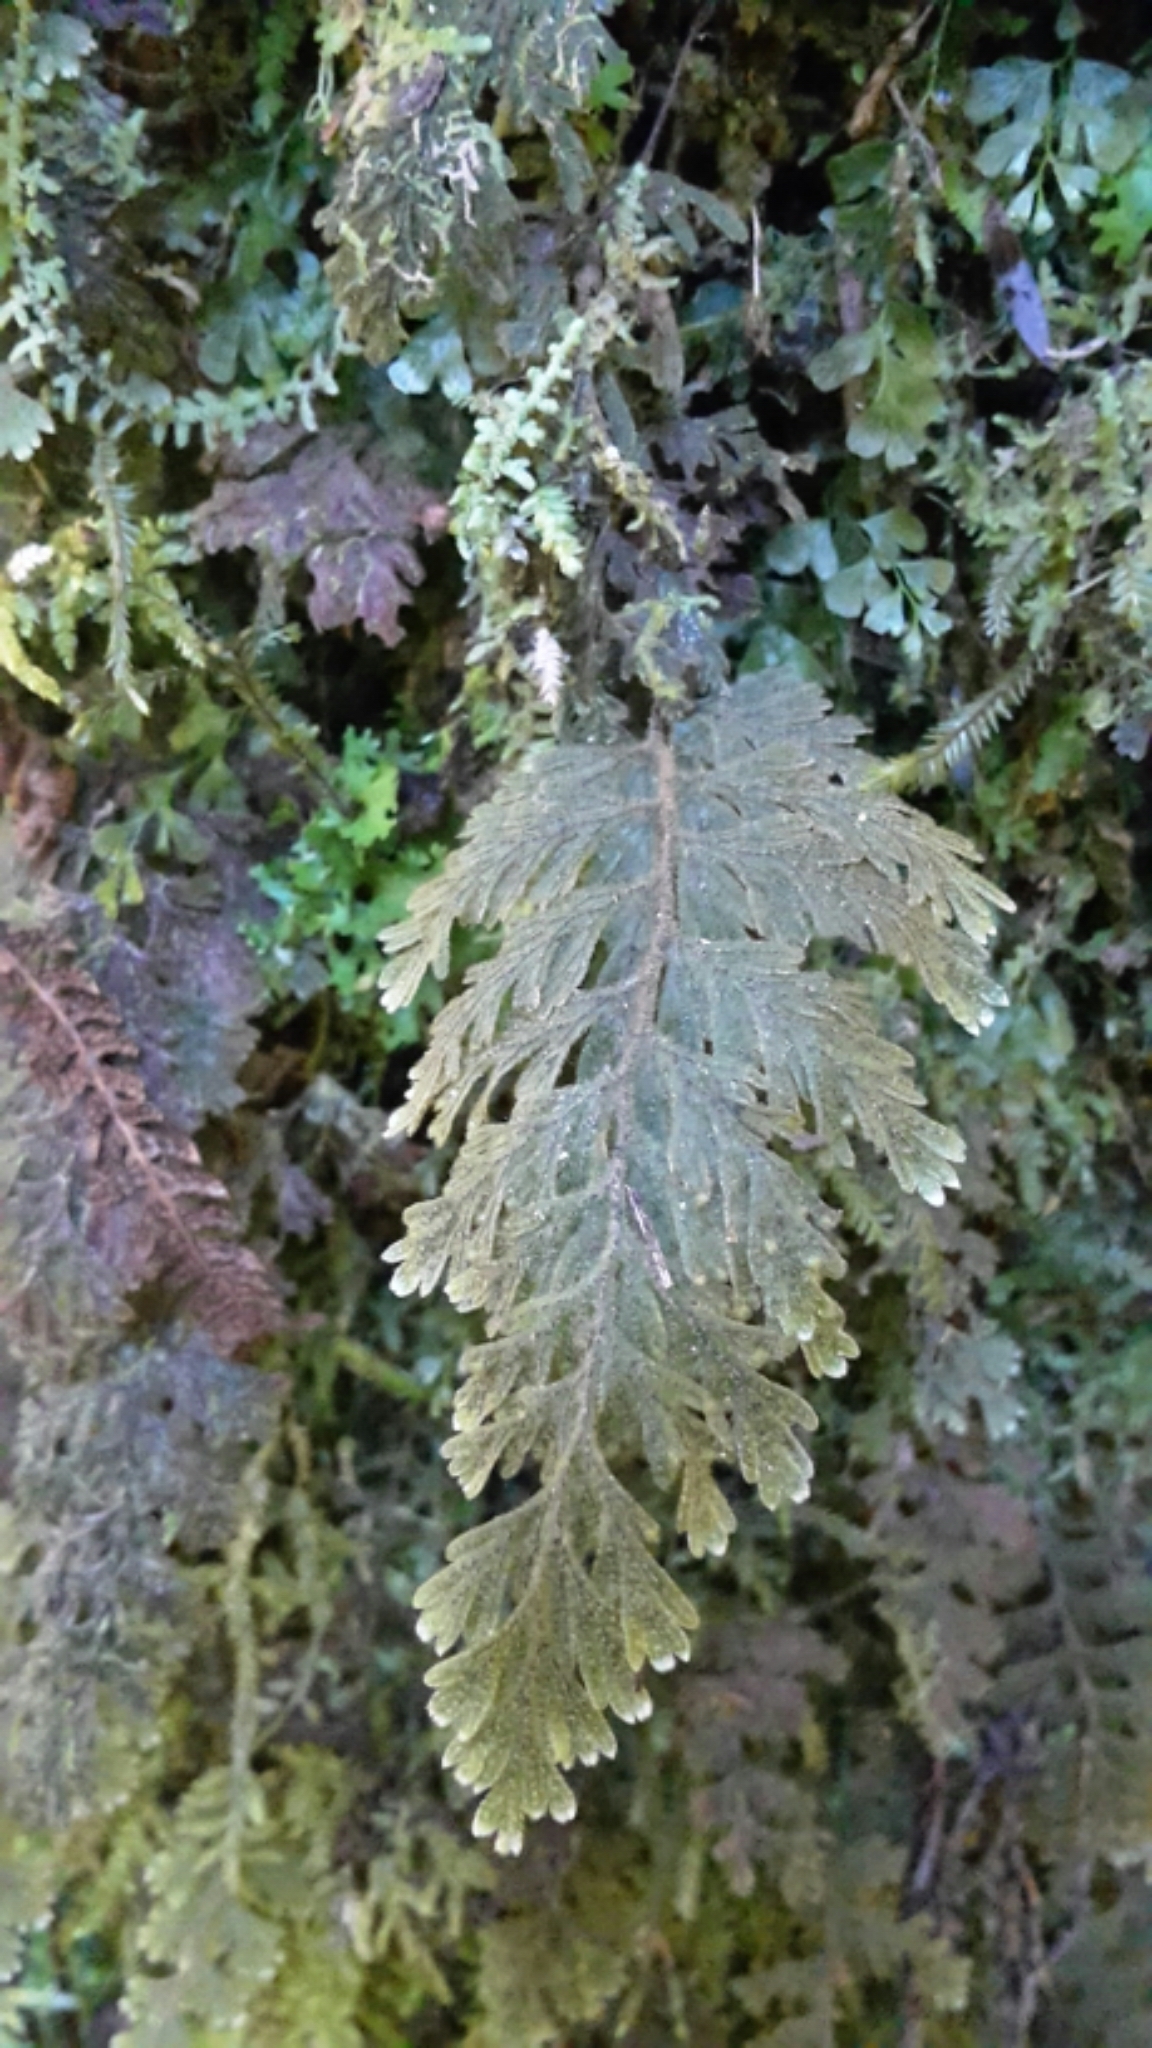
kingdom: Plantae
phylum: Tracheophyta
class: Polypodiopsida
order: Hymenophyllales
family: Hymenophyllaceae
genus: Hymenophyllum
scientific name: Hymenophyllum frankliniae
